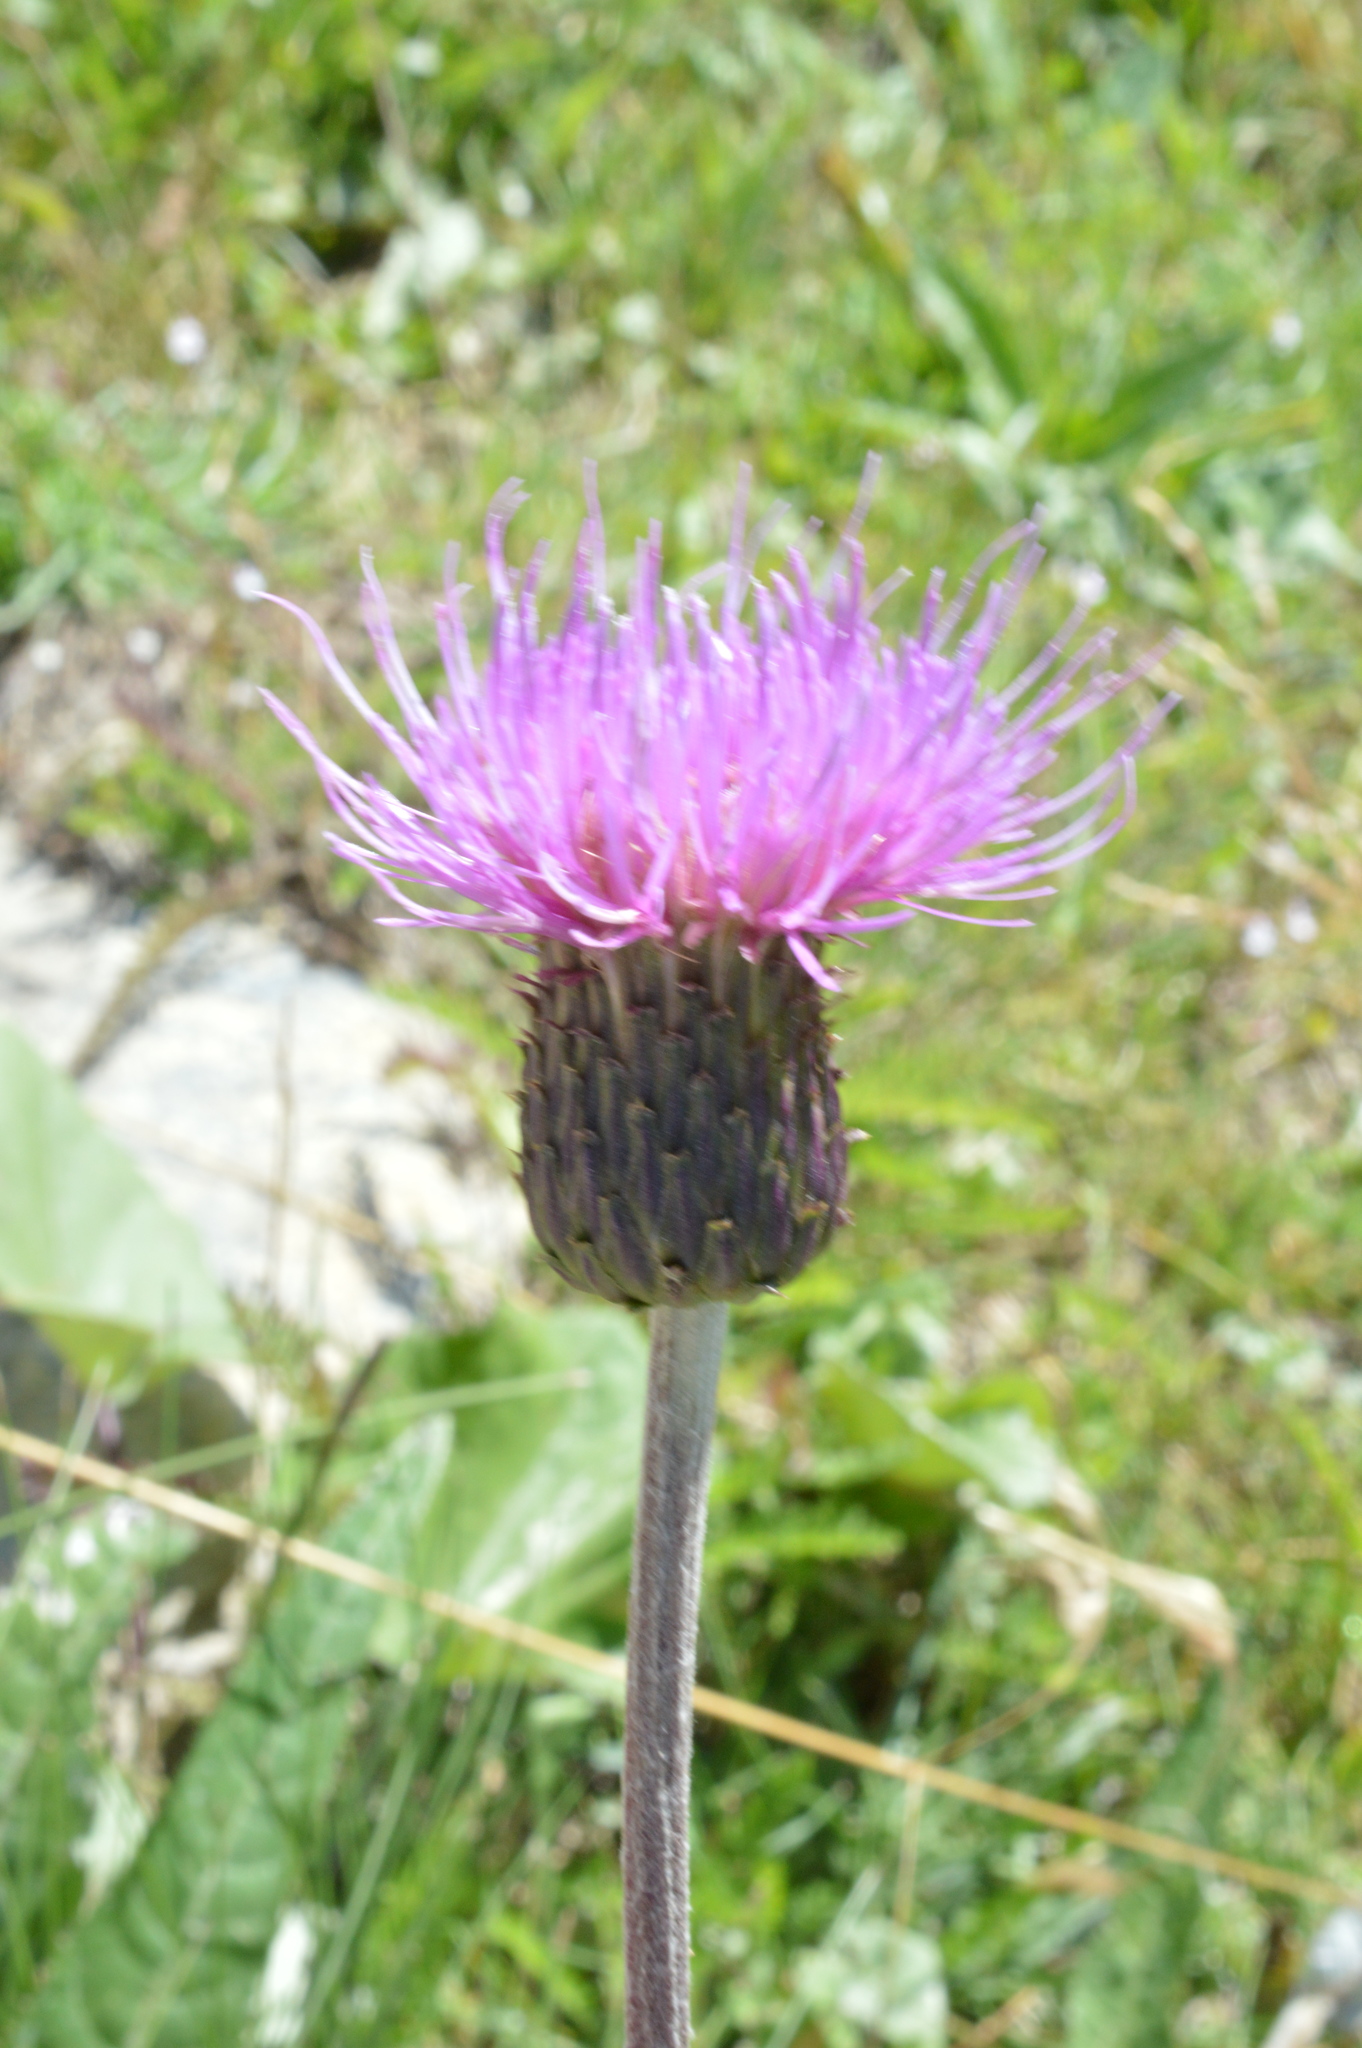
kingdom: Plantae
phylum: Tracheophyta
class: Magnoliopsida
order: Asterales
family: Asteraceae
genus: Cirsium
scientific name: Cirsium heterophyllum
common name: Melancholy thistle
